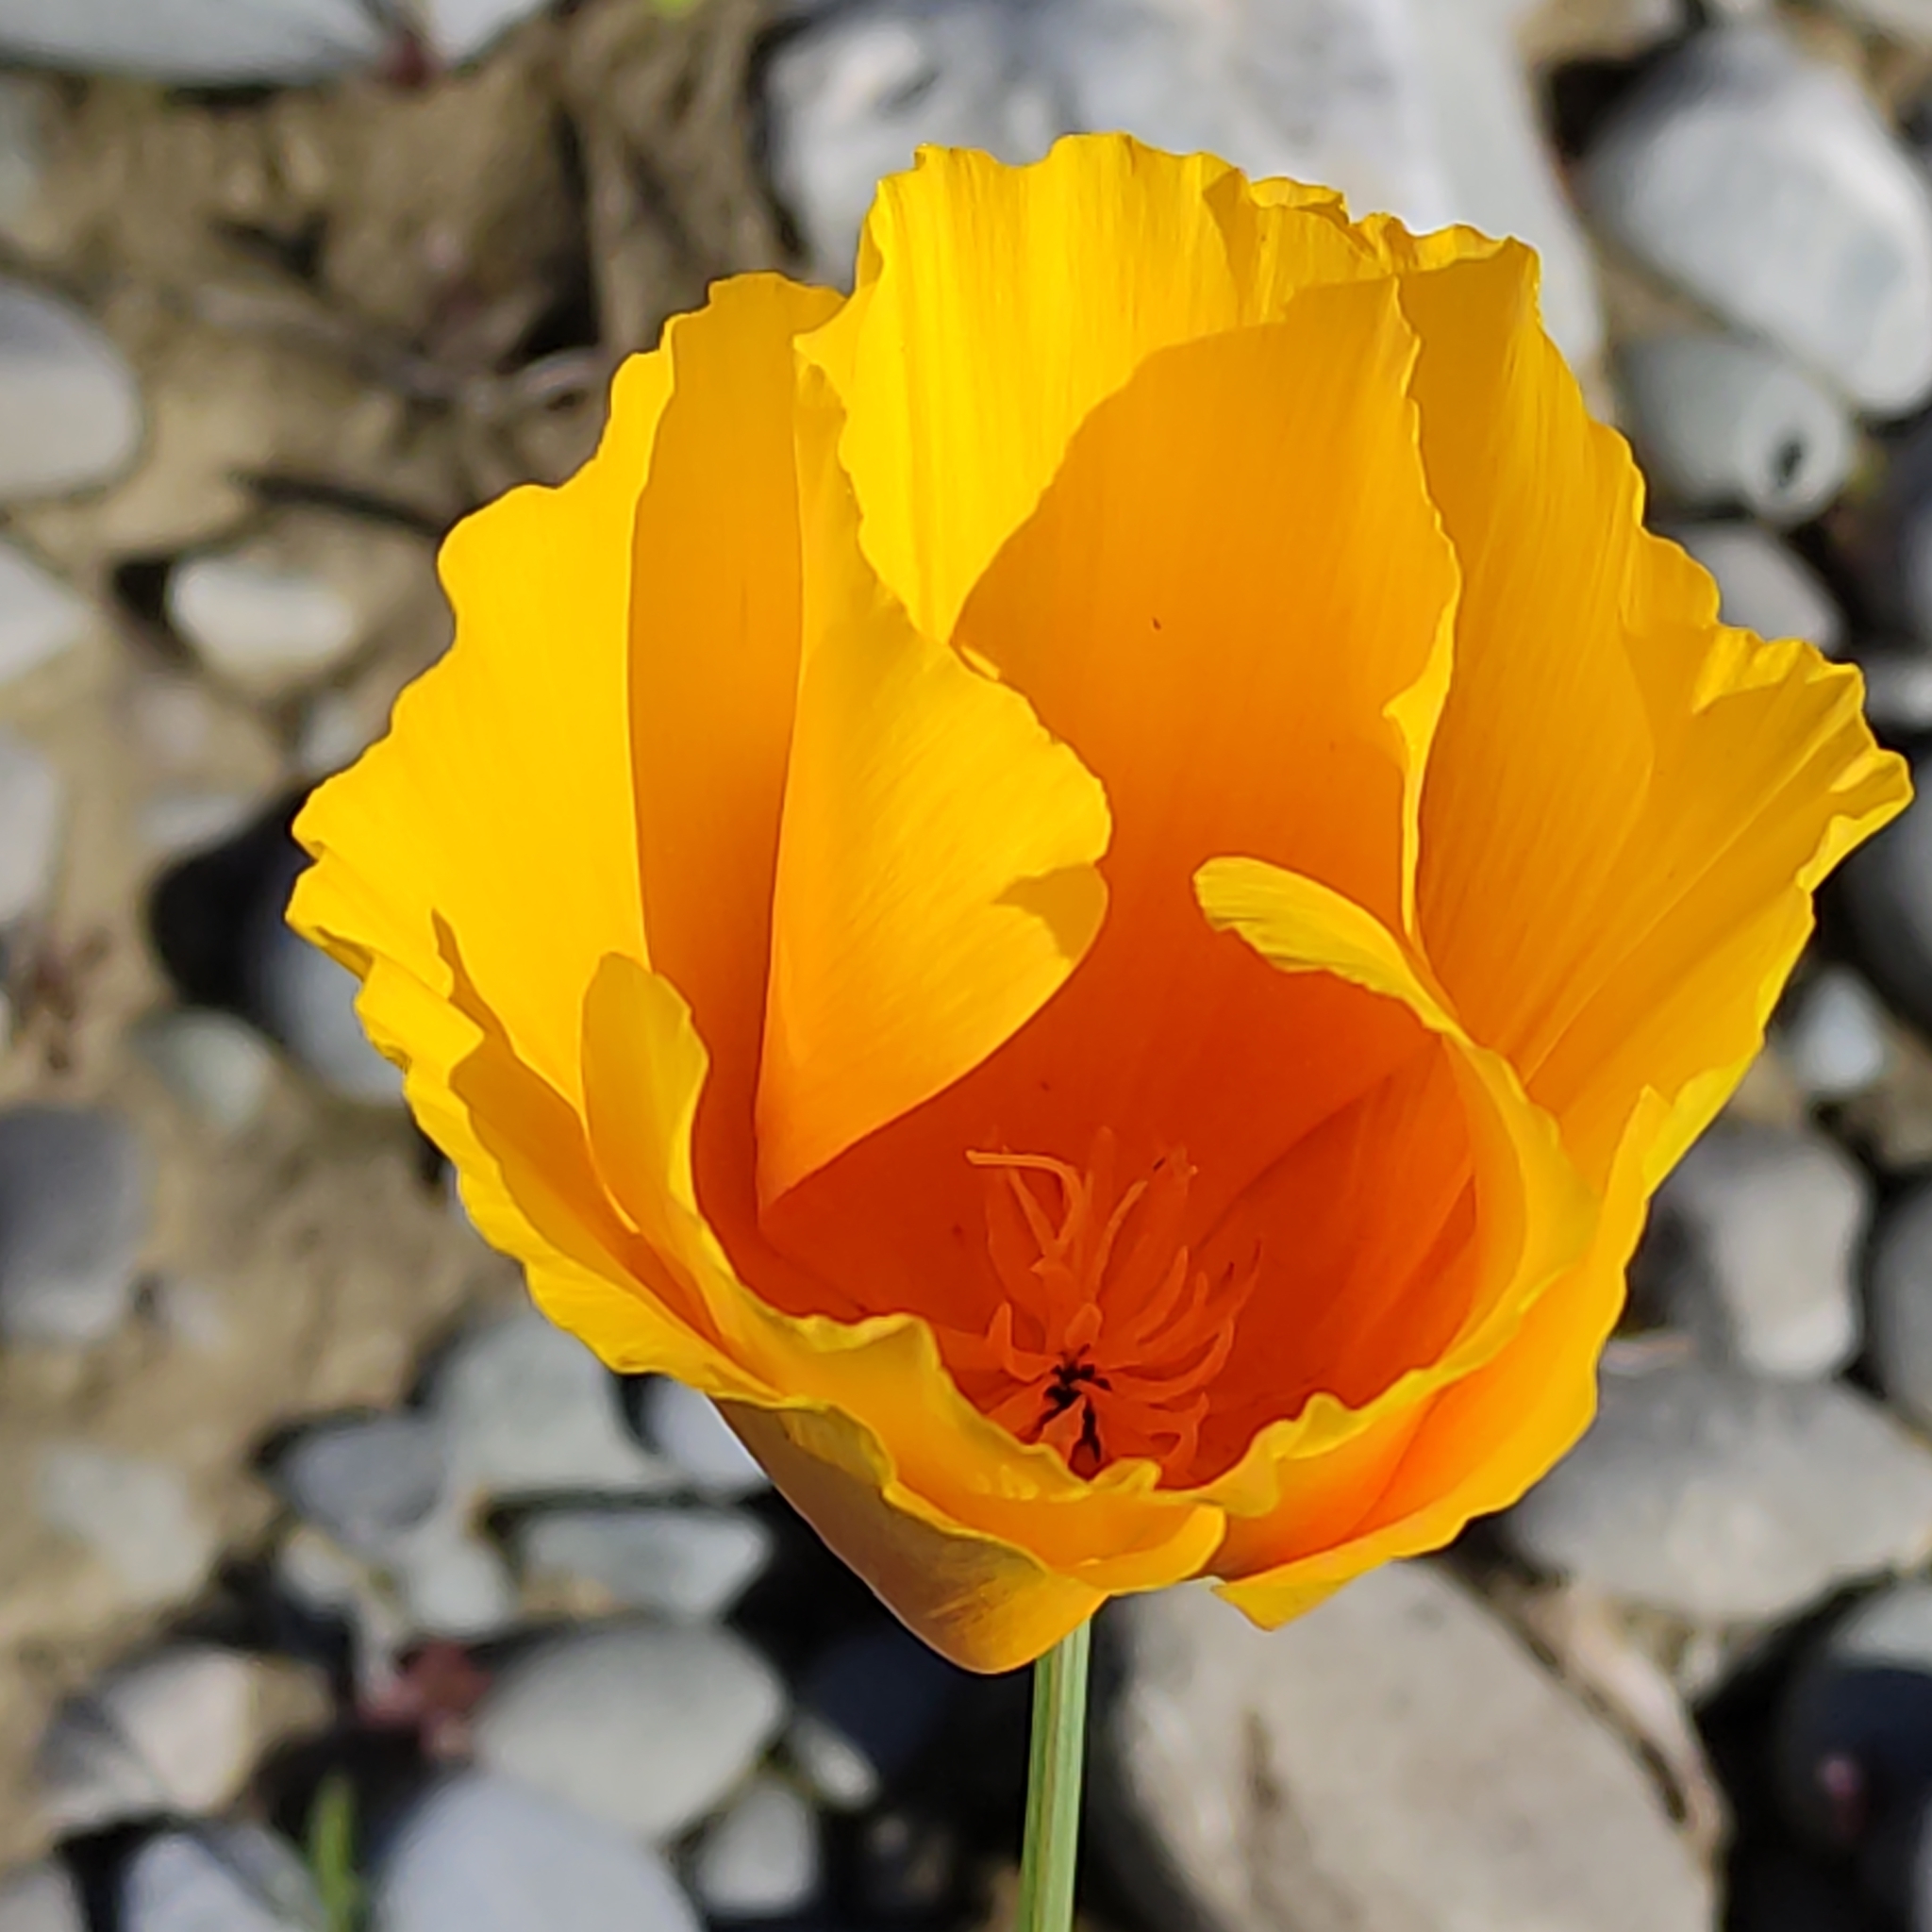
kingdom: Plantae
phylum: Tracheophyta
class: Magnoliopsida
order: Ranunculales
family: Papaveraceae
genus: Eschscholzia
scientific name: Eschscholzia californica
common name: California poppy
